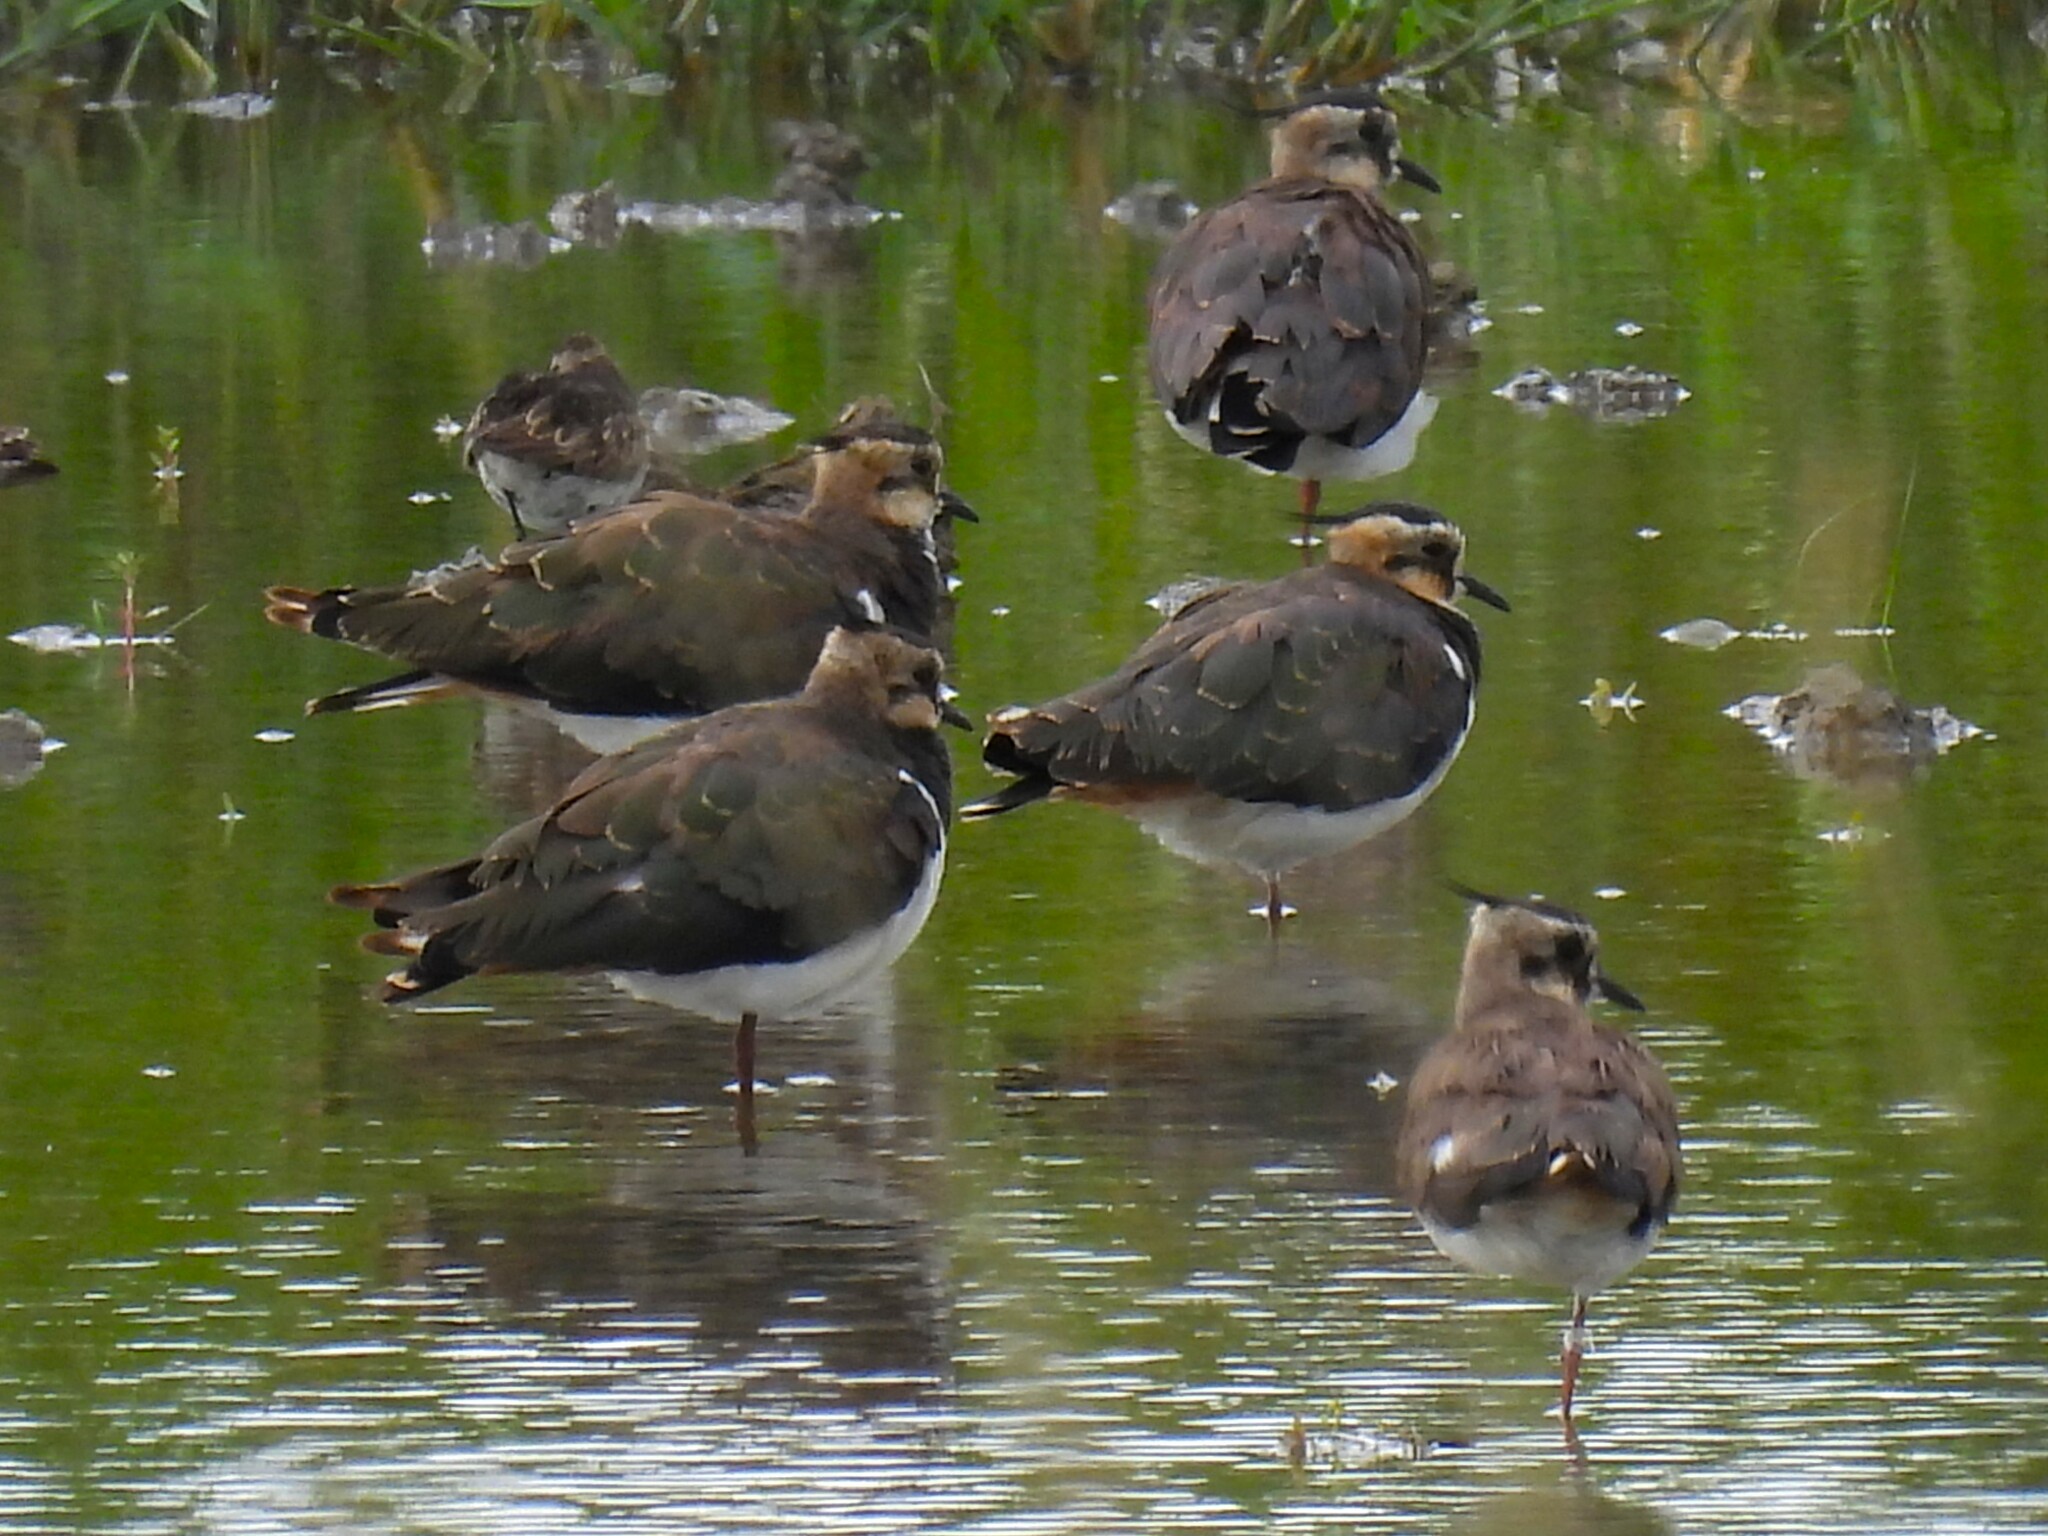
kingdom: Animalia
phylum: Chordata
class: Aves
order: Charadriiformes
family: Charadriidae
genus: Vanellus
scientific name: Vanellus vanellus
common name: Northern lapwing
